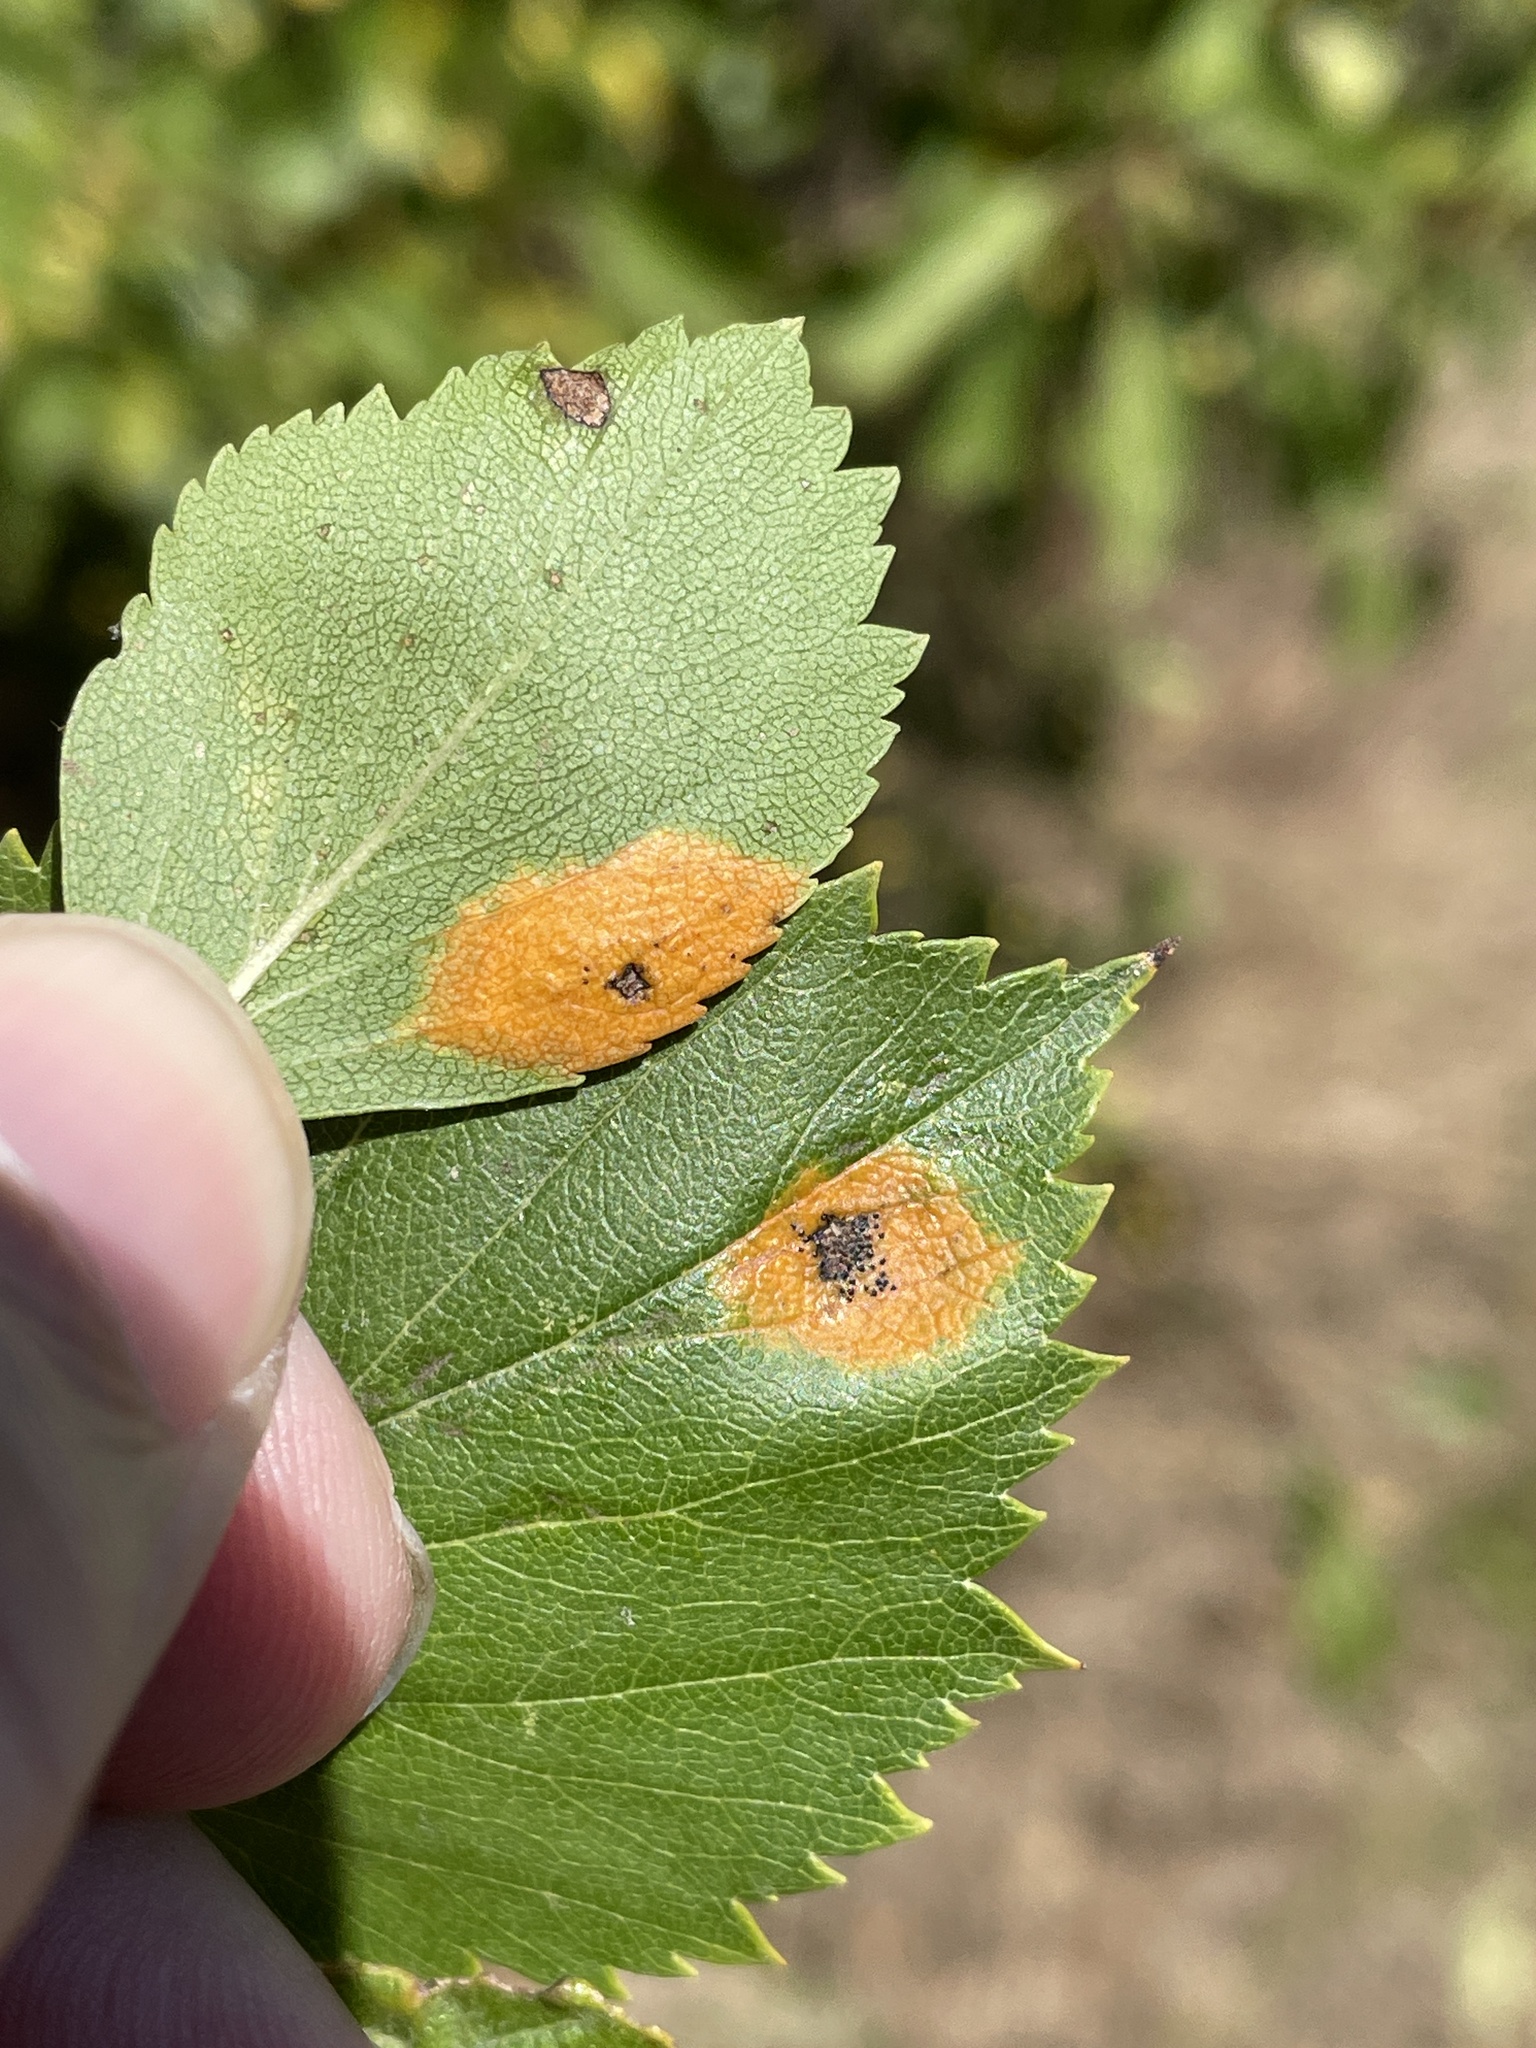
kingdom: Fungi
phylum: Basidiomycota
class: Pucciniomycetes
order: Pucciniales
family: Gymnosporangiaceae
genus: Gymnosporangium
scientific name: Gymnosporangium globosum
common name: Juniper-hawthorn rust
